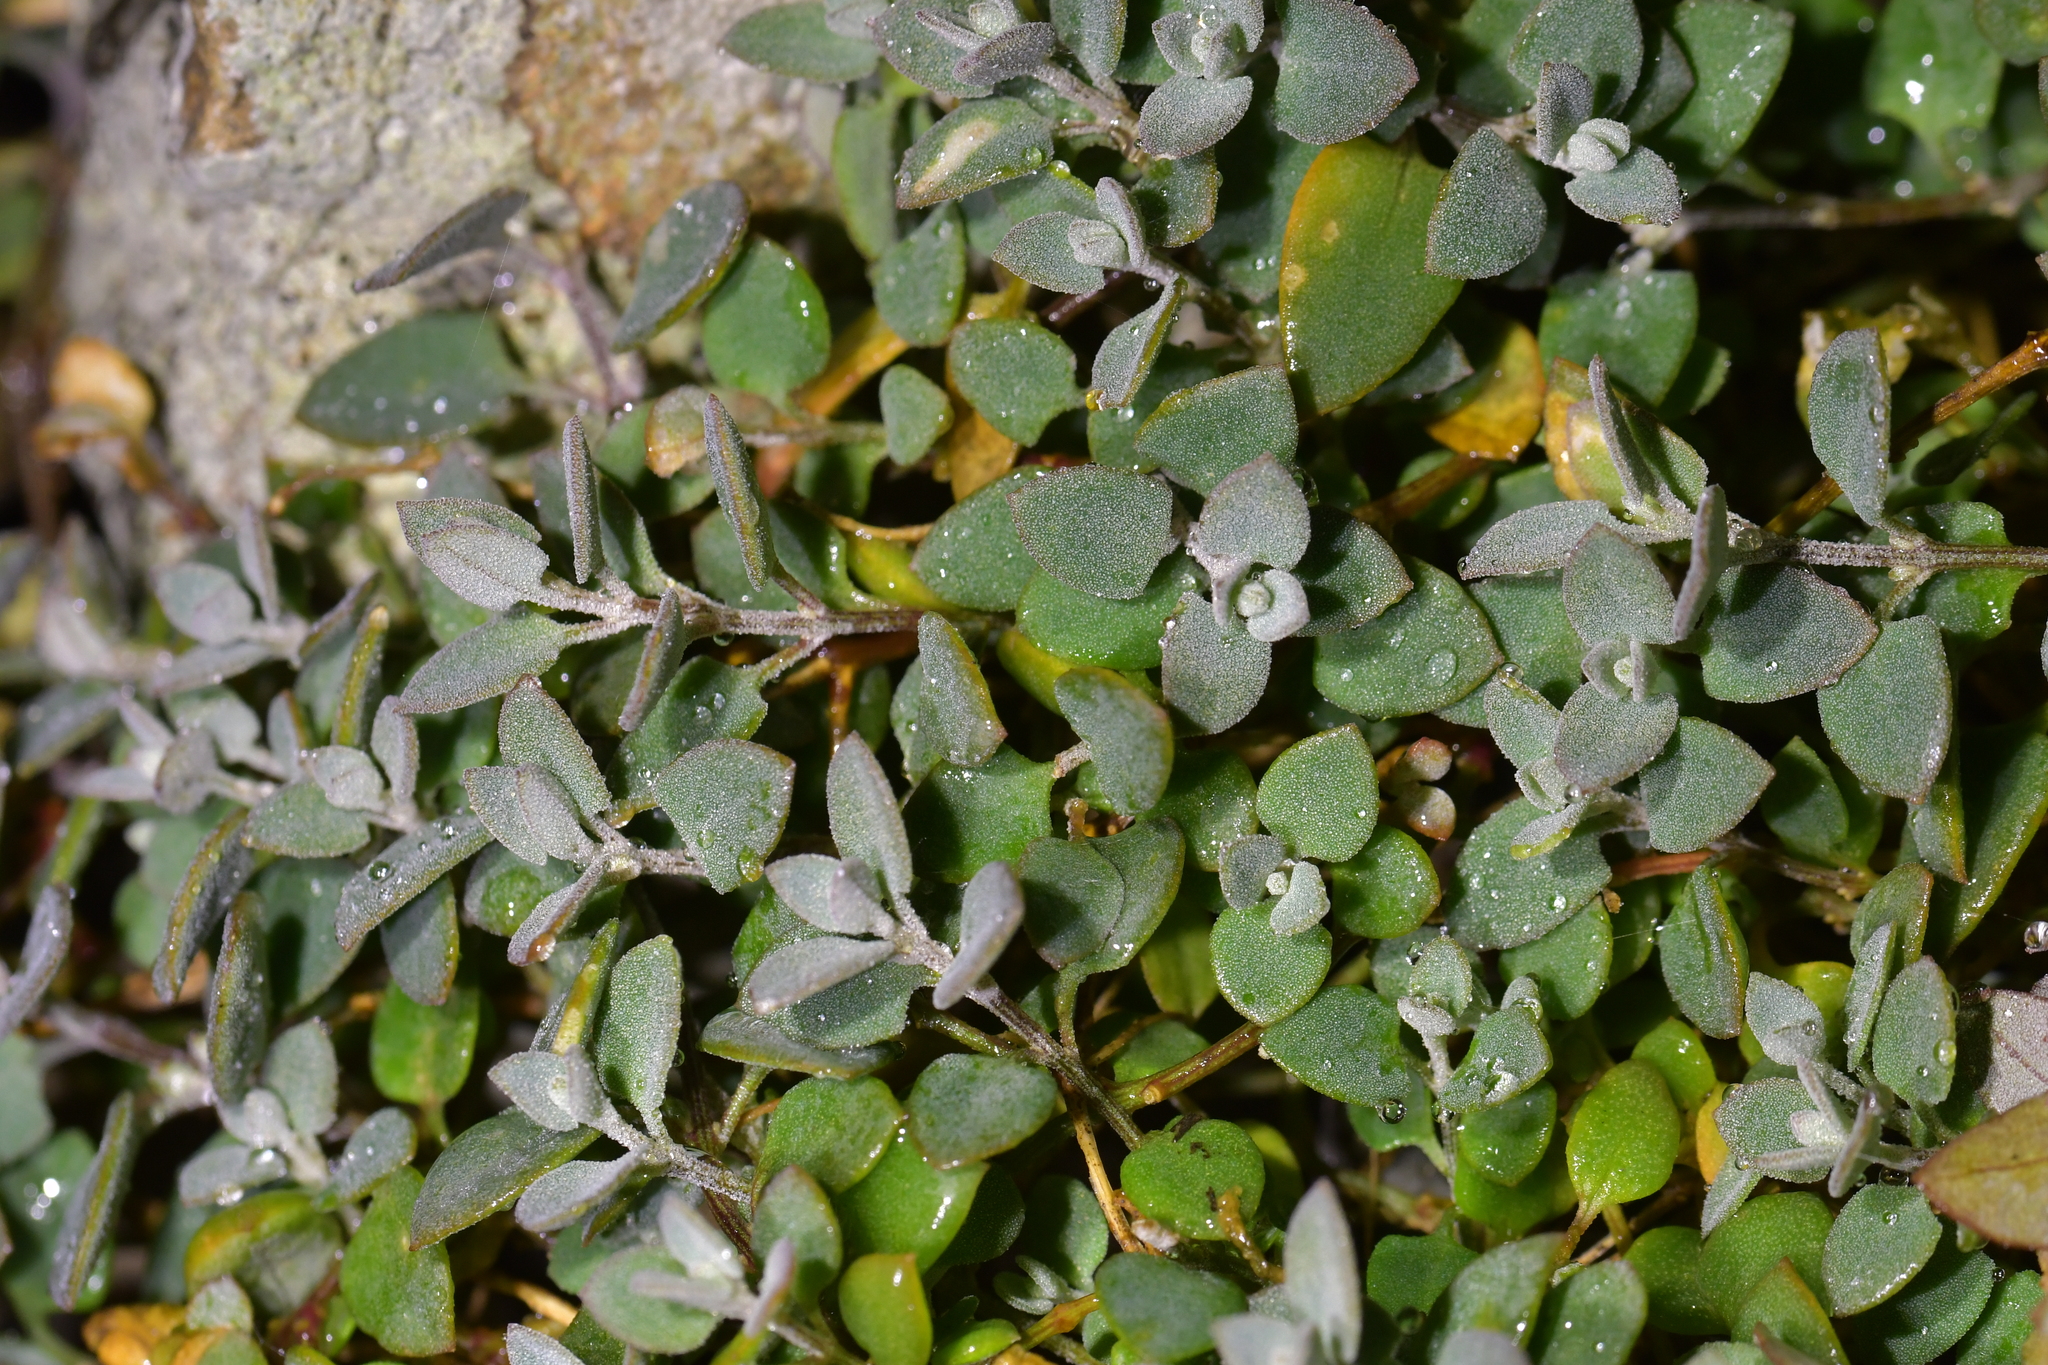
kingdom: Plantae
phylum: Tracheophyta
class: Magnoliopsida
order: Caryophyllales
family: Amaranthaceae
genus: Chenopodium
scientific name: Chenopodium triandrum
